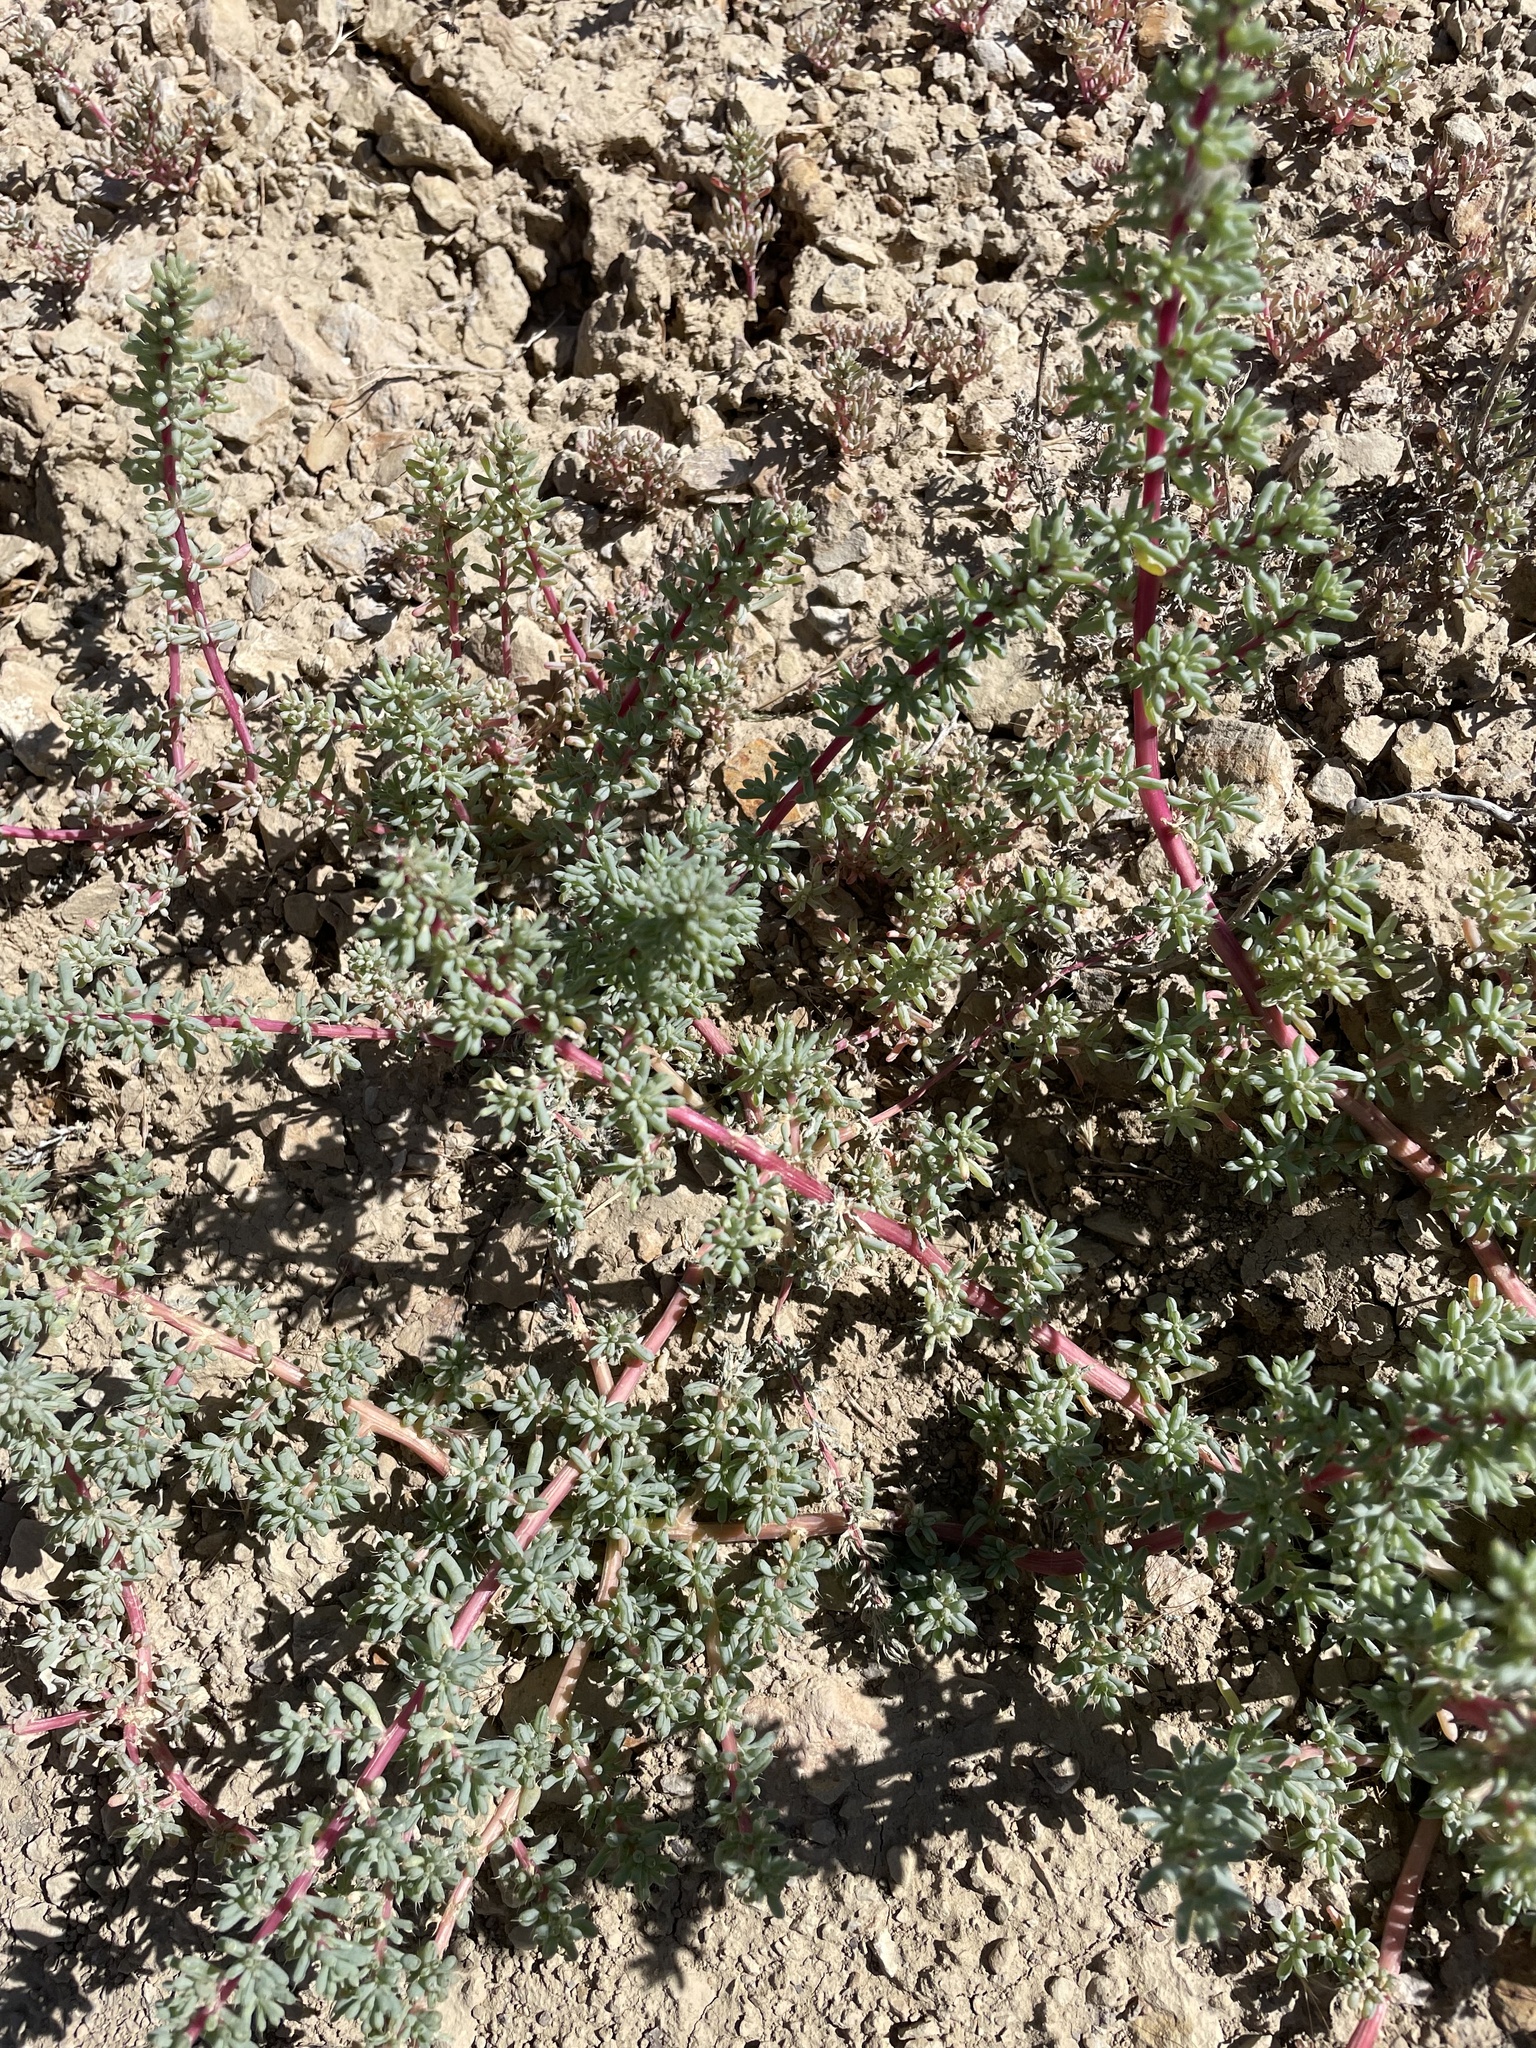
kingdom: Plantae
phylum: Tracheophyta
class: Magnoliopsida
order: Caryophyllales
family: Amaranthaceae
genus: Halogeton
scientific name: Halogeton glomeratus
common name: Saltlover
